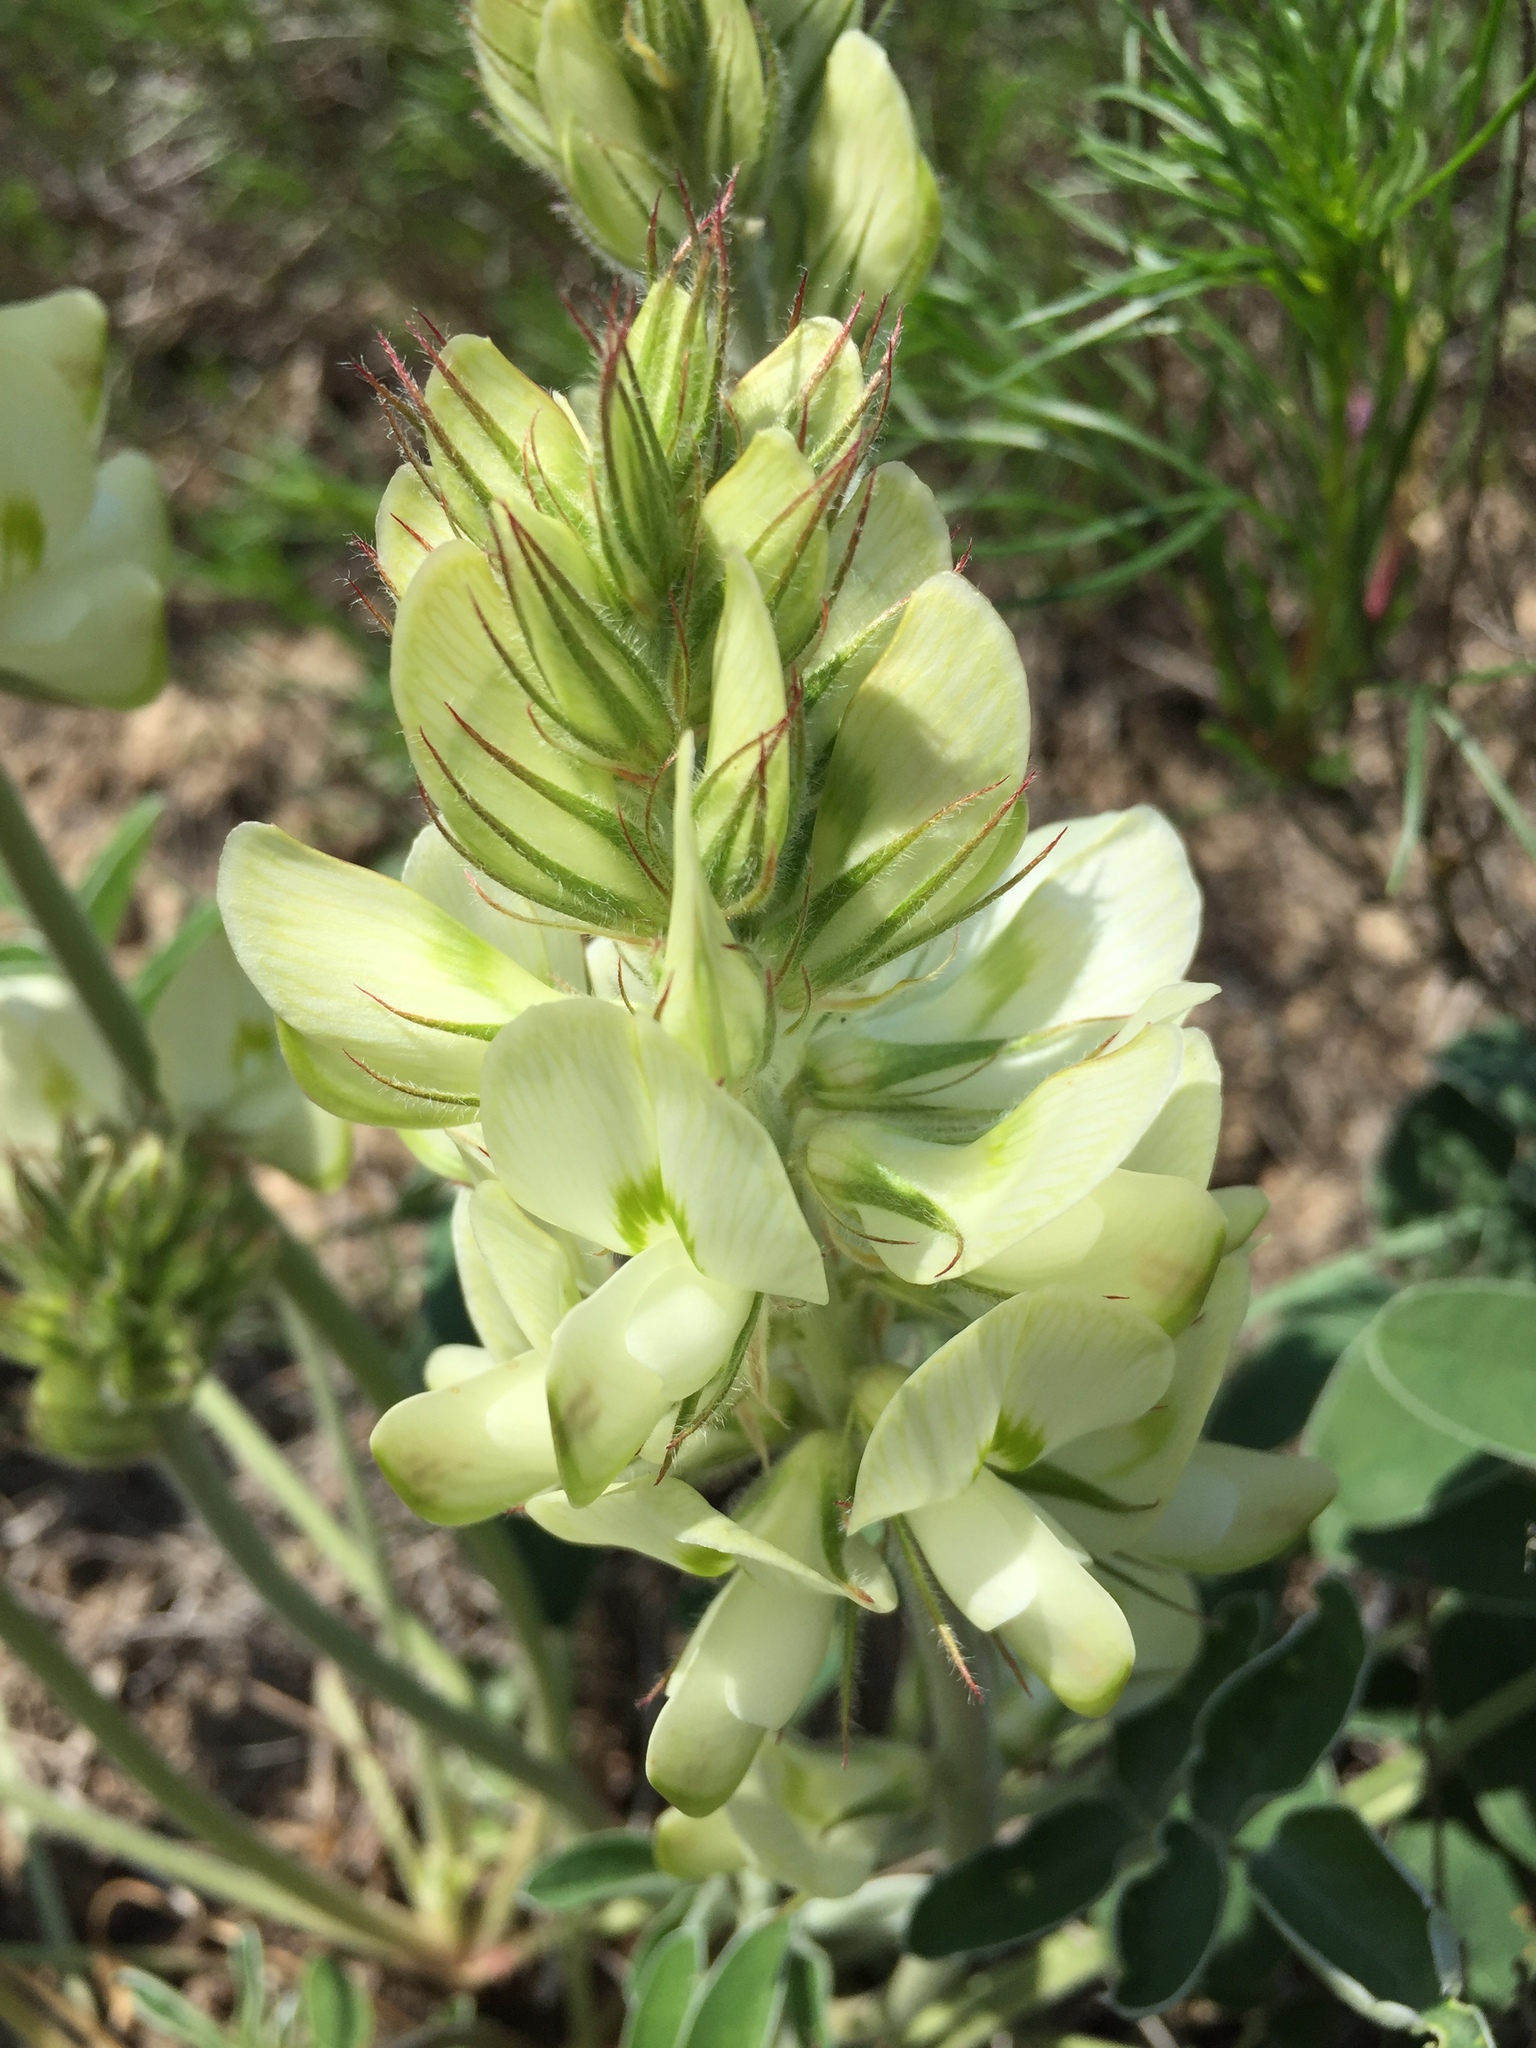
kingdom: Plantae
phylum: Tracheophyta
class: Magnoliopsida
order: Fabales
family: Fabaceae
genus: Hedysarum
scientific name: Hedysarum grandiflorum
